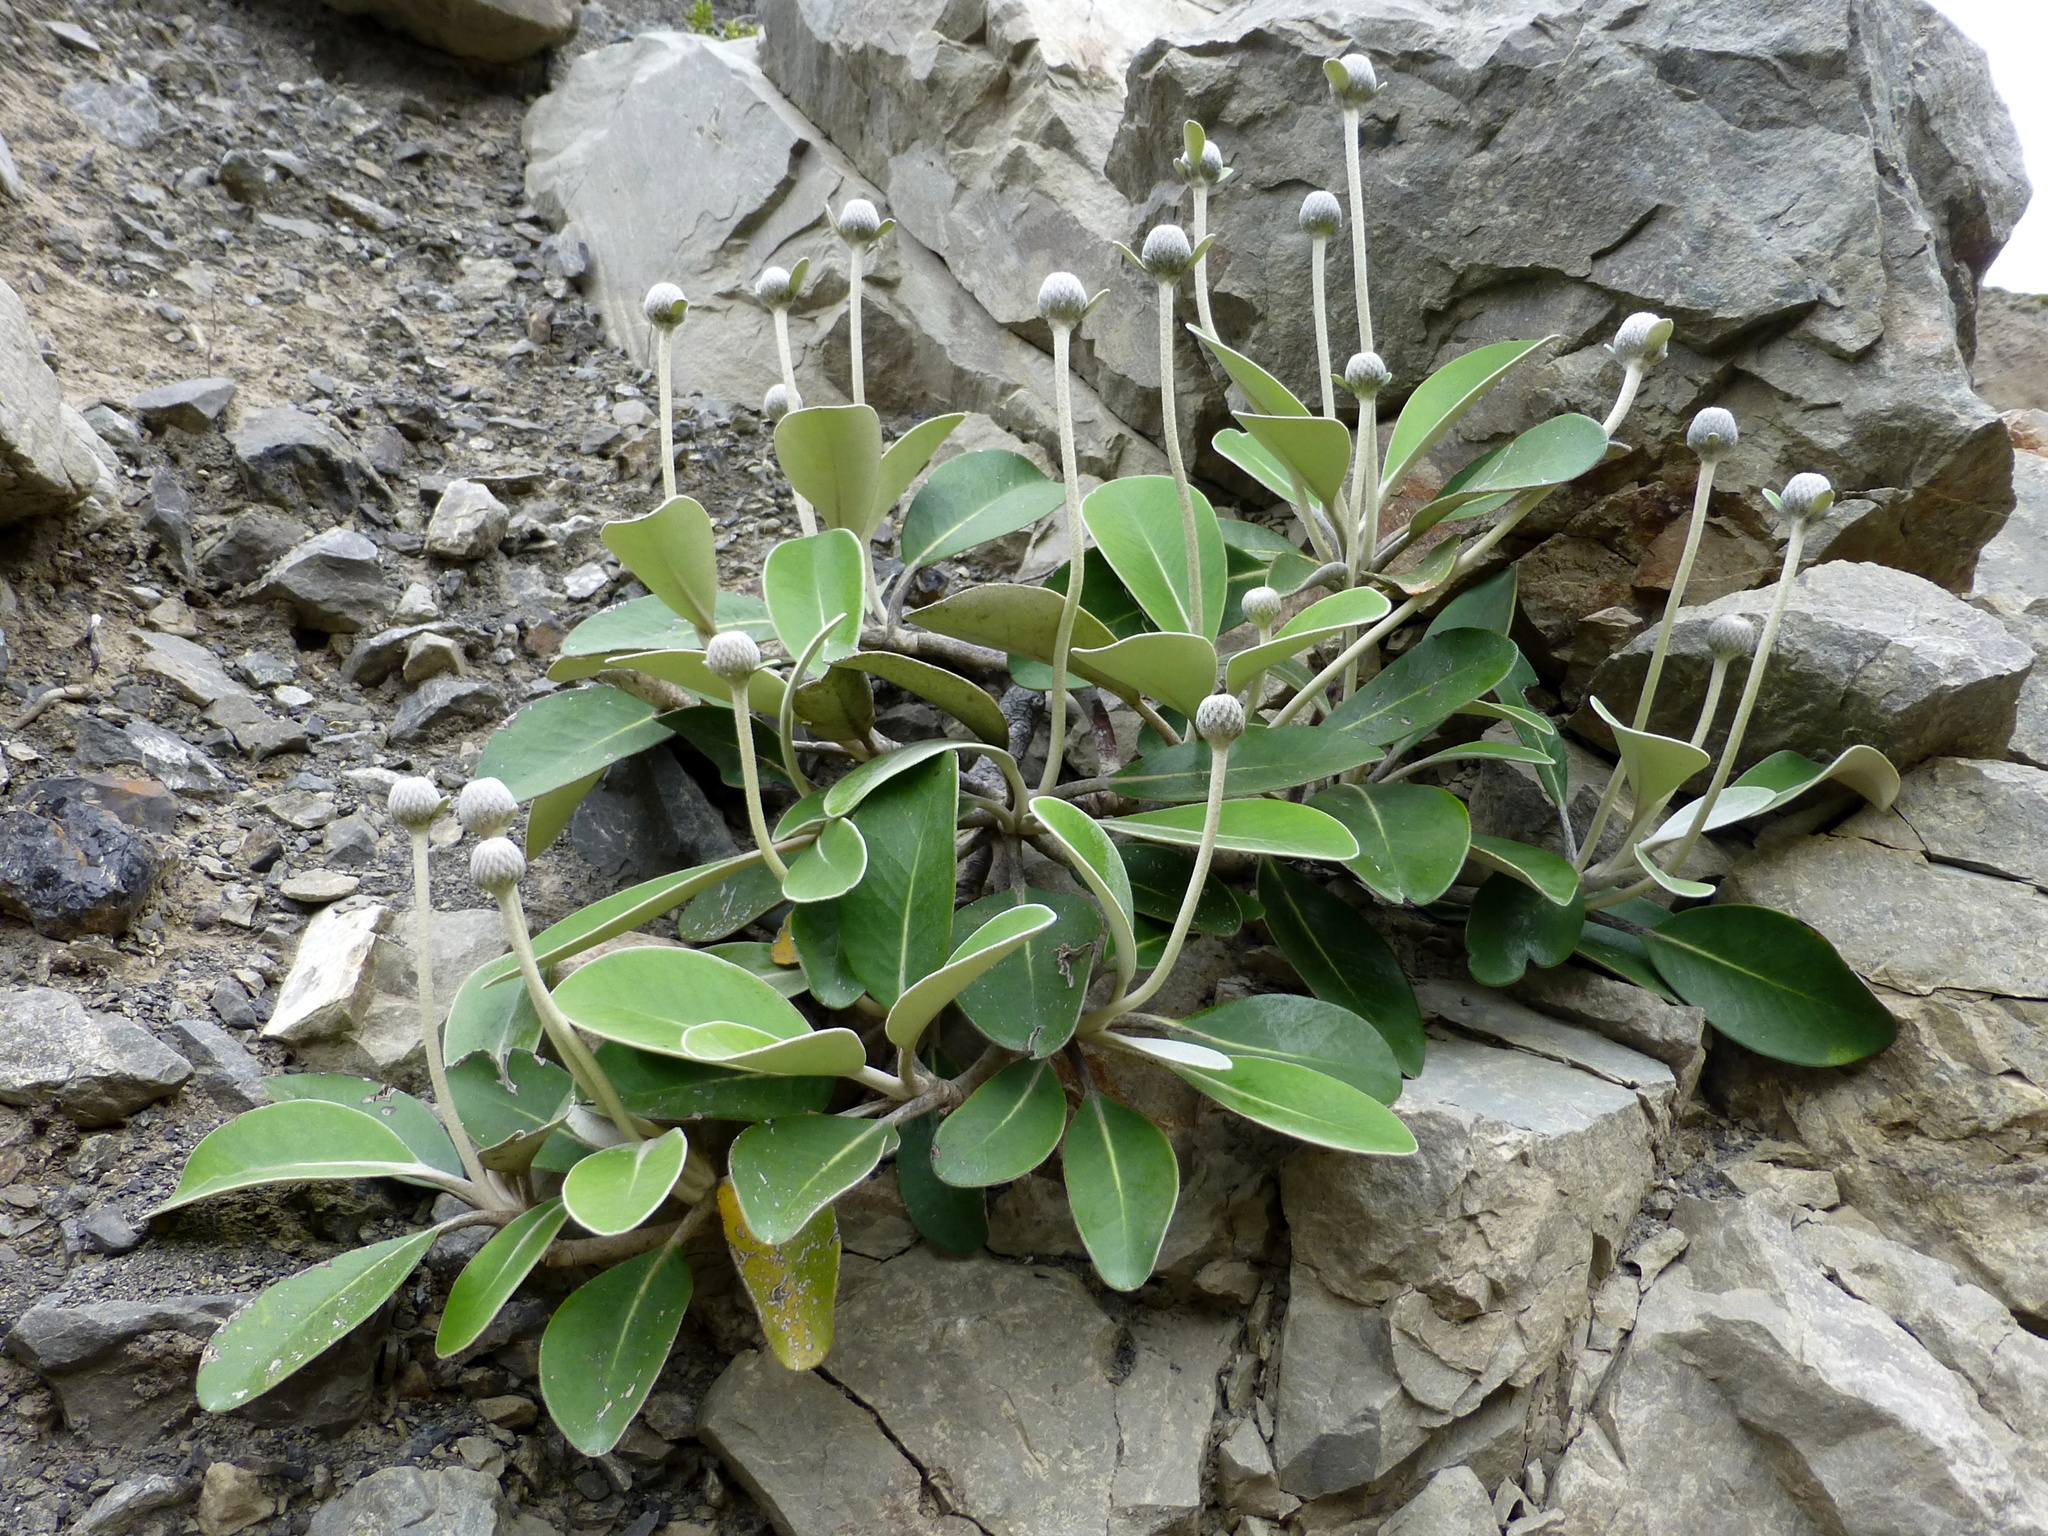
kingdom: Plantae
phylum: Tracheophyta
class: Magnoliopsida
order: Asterales
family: Asteraceae
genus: Pachystegia
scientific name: Pachystegia minor
